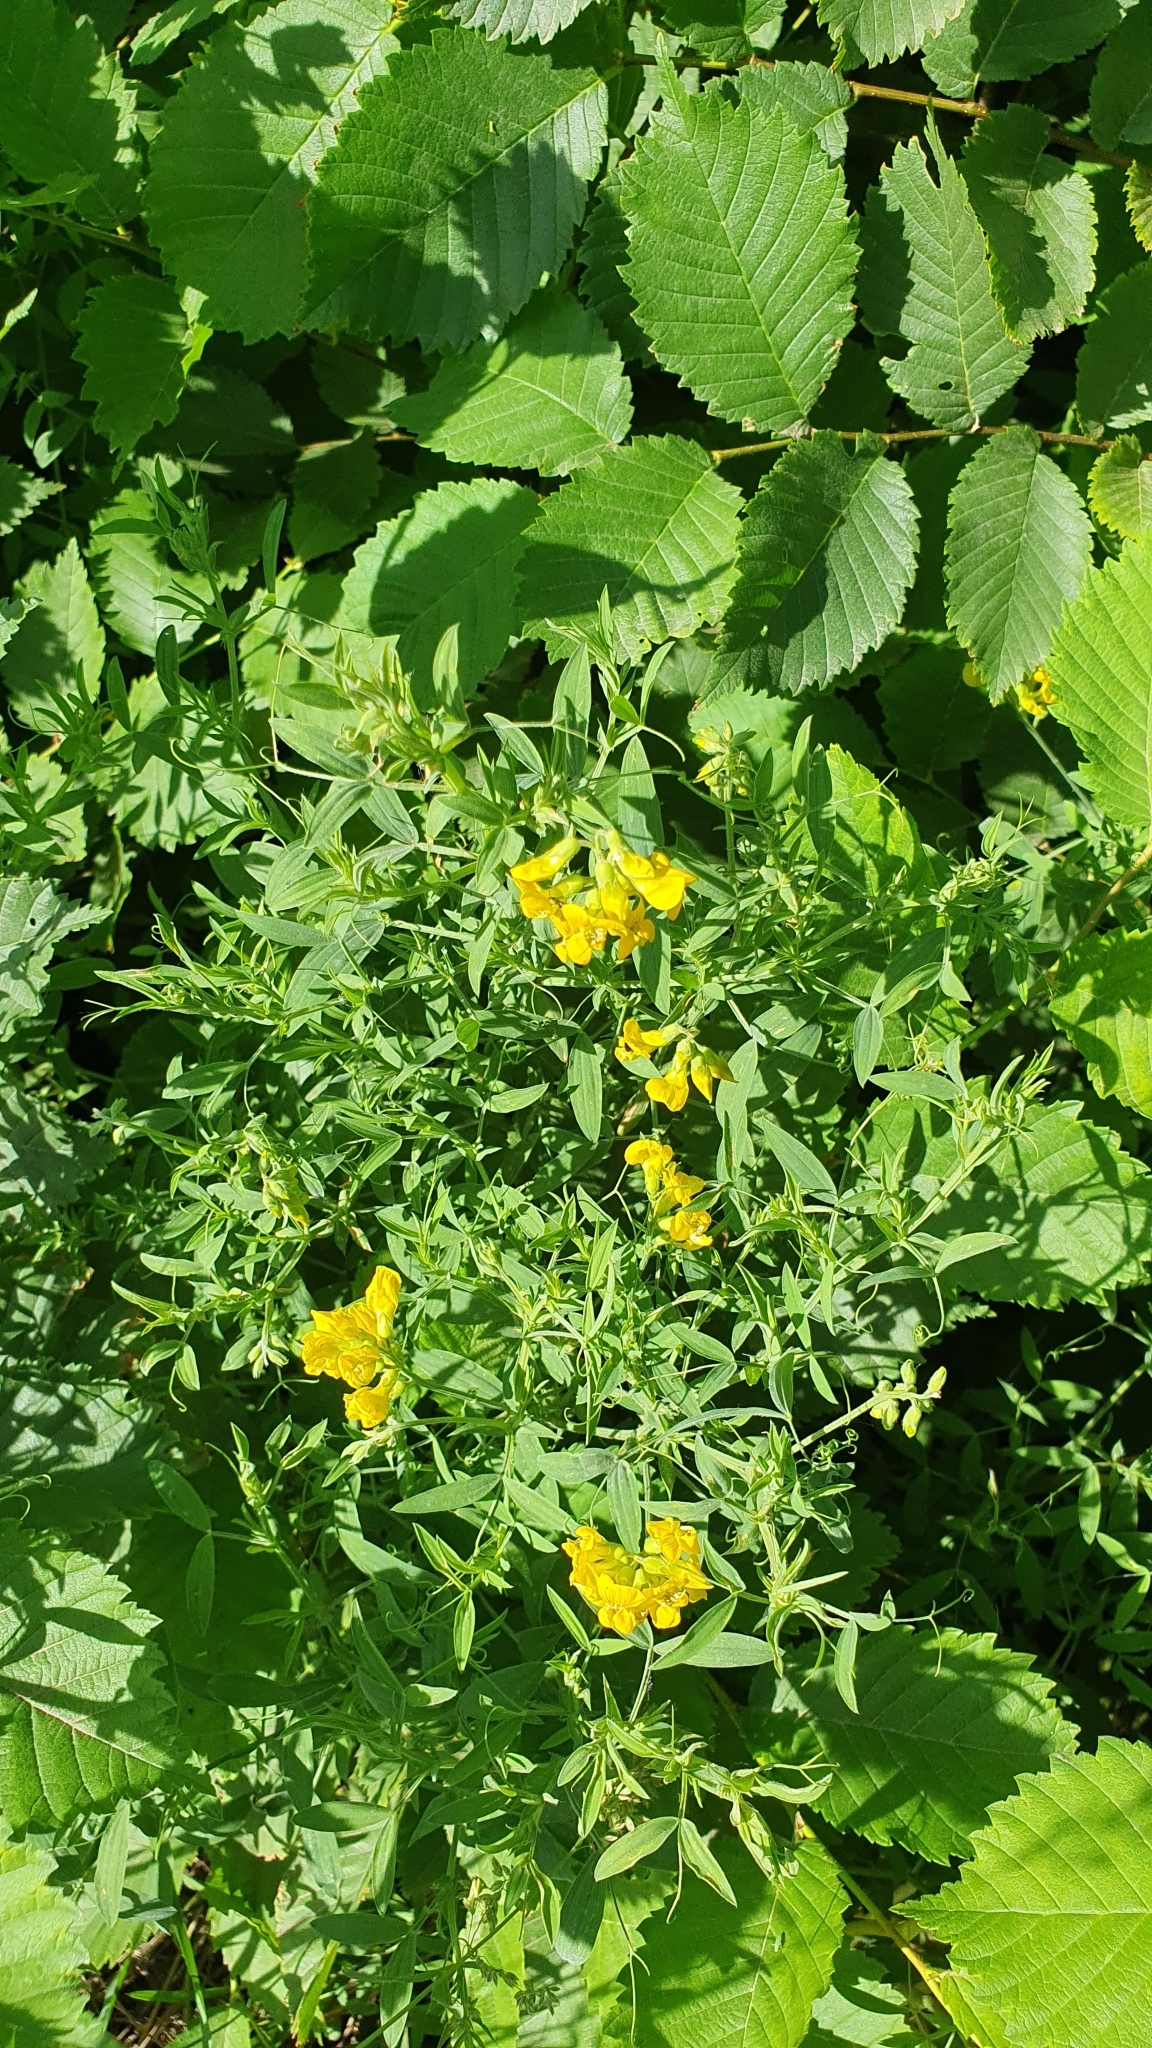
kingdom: Plantae
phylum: Tracheophyta
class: Magnoliopsida
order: Fabales
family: Fabaceae
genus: Lathyrus
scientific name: Lathyrus pratensis
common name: Meadow vetchling
